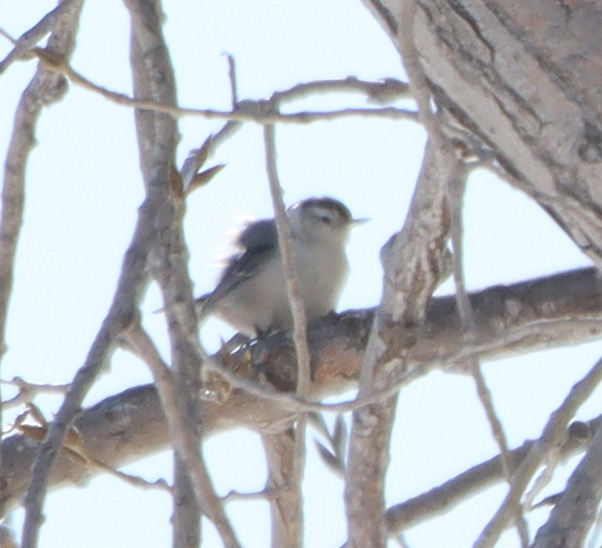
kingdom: Animalia
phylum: Chordata
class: Aves
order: Passeriformes
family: Sittidae
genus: Sitta
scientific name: Sitta carolinensis
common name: White-breasted nuthatch
